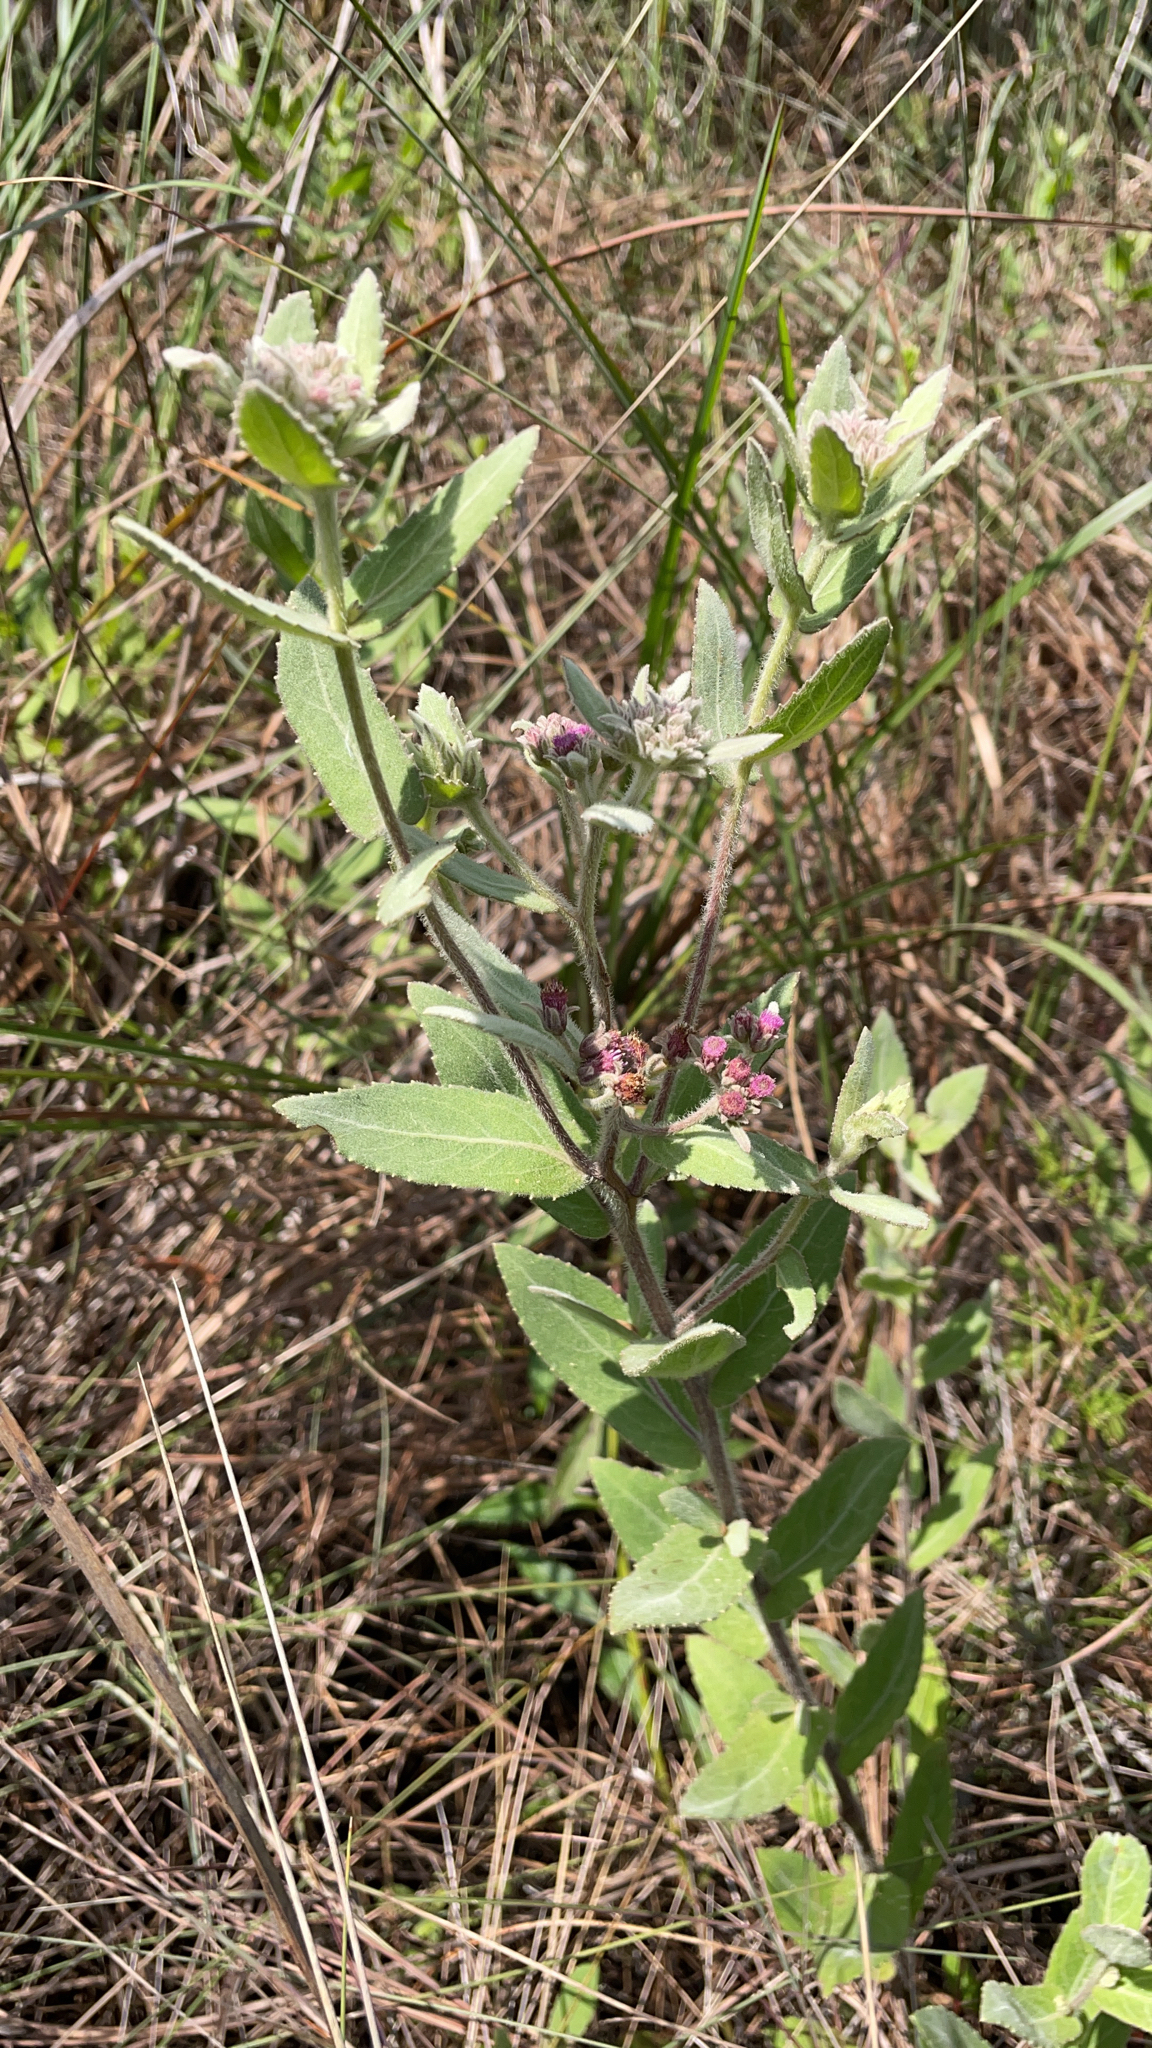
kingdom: Plantae
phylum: Tracheophyta
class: Magnoliopsida
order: Asterales
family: Asteraceae
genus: Pluchea
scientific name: Pluchea baccharis
